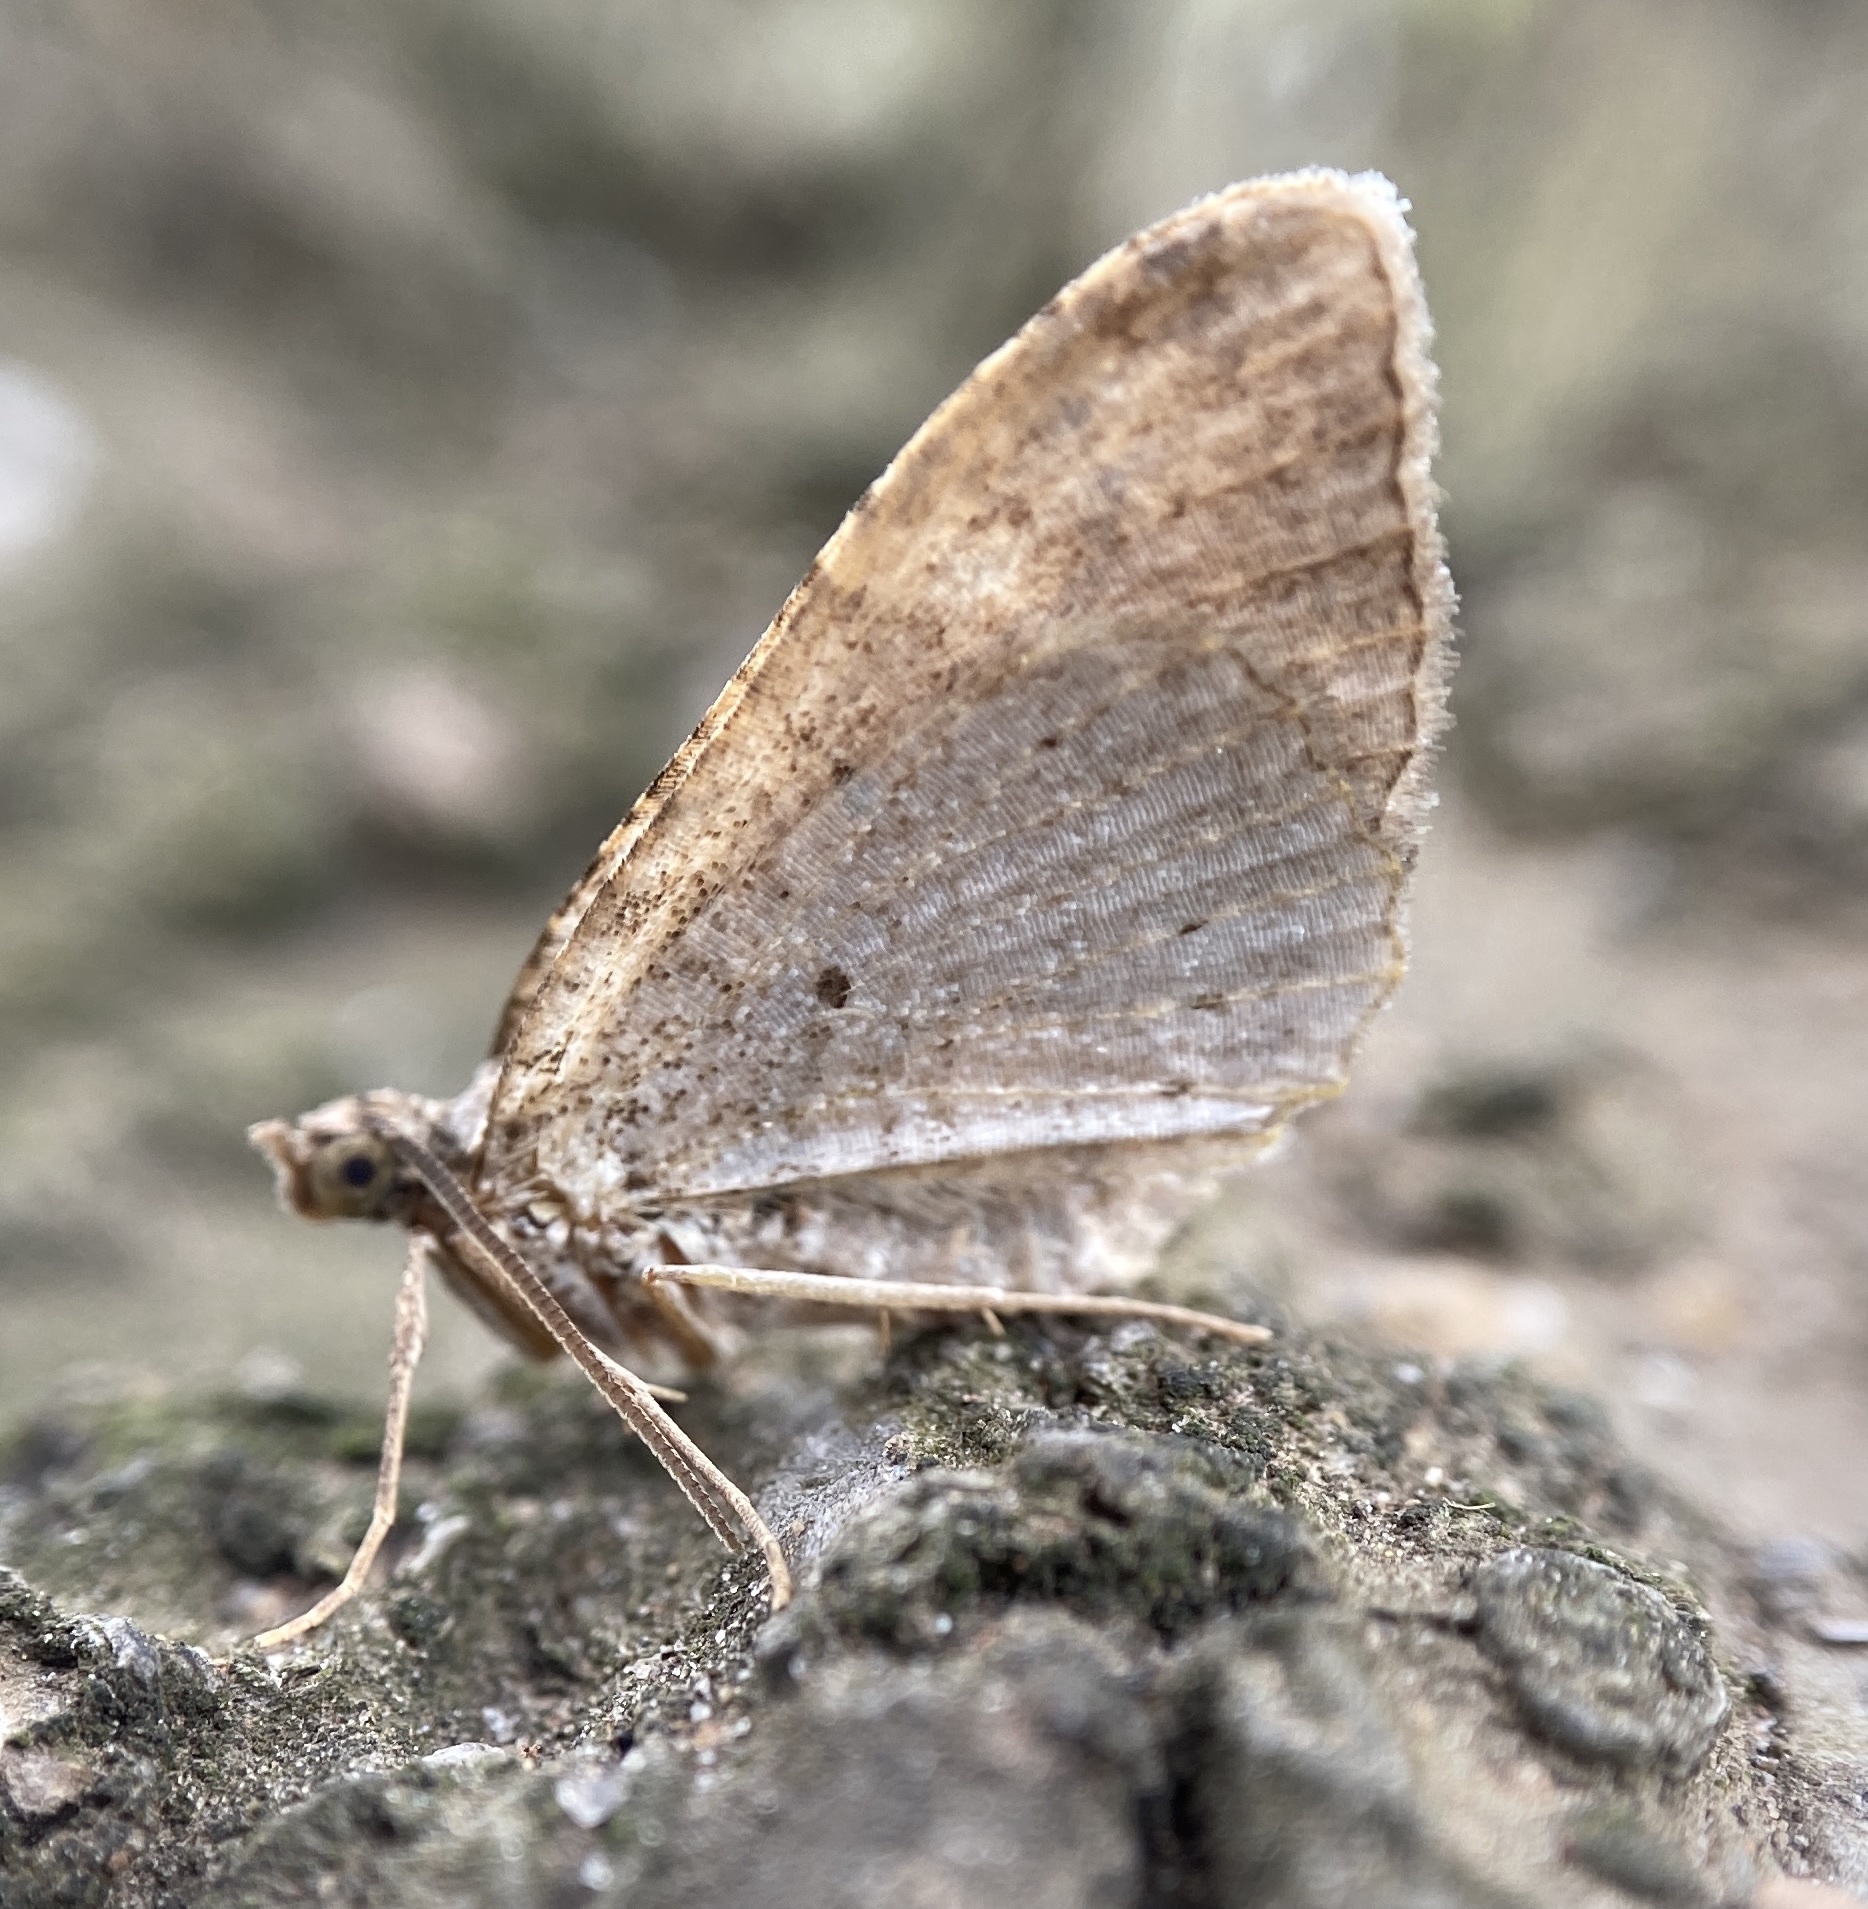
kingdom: Animalia
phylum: Arthropoda
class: Insecta
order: Lepidoptera
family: Geometridae
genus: Costaconvexa
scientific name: Costaconvexa centrostrigaria
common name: Bent-line carpet
